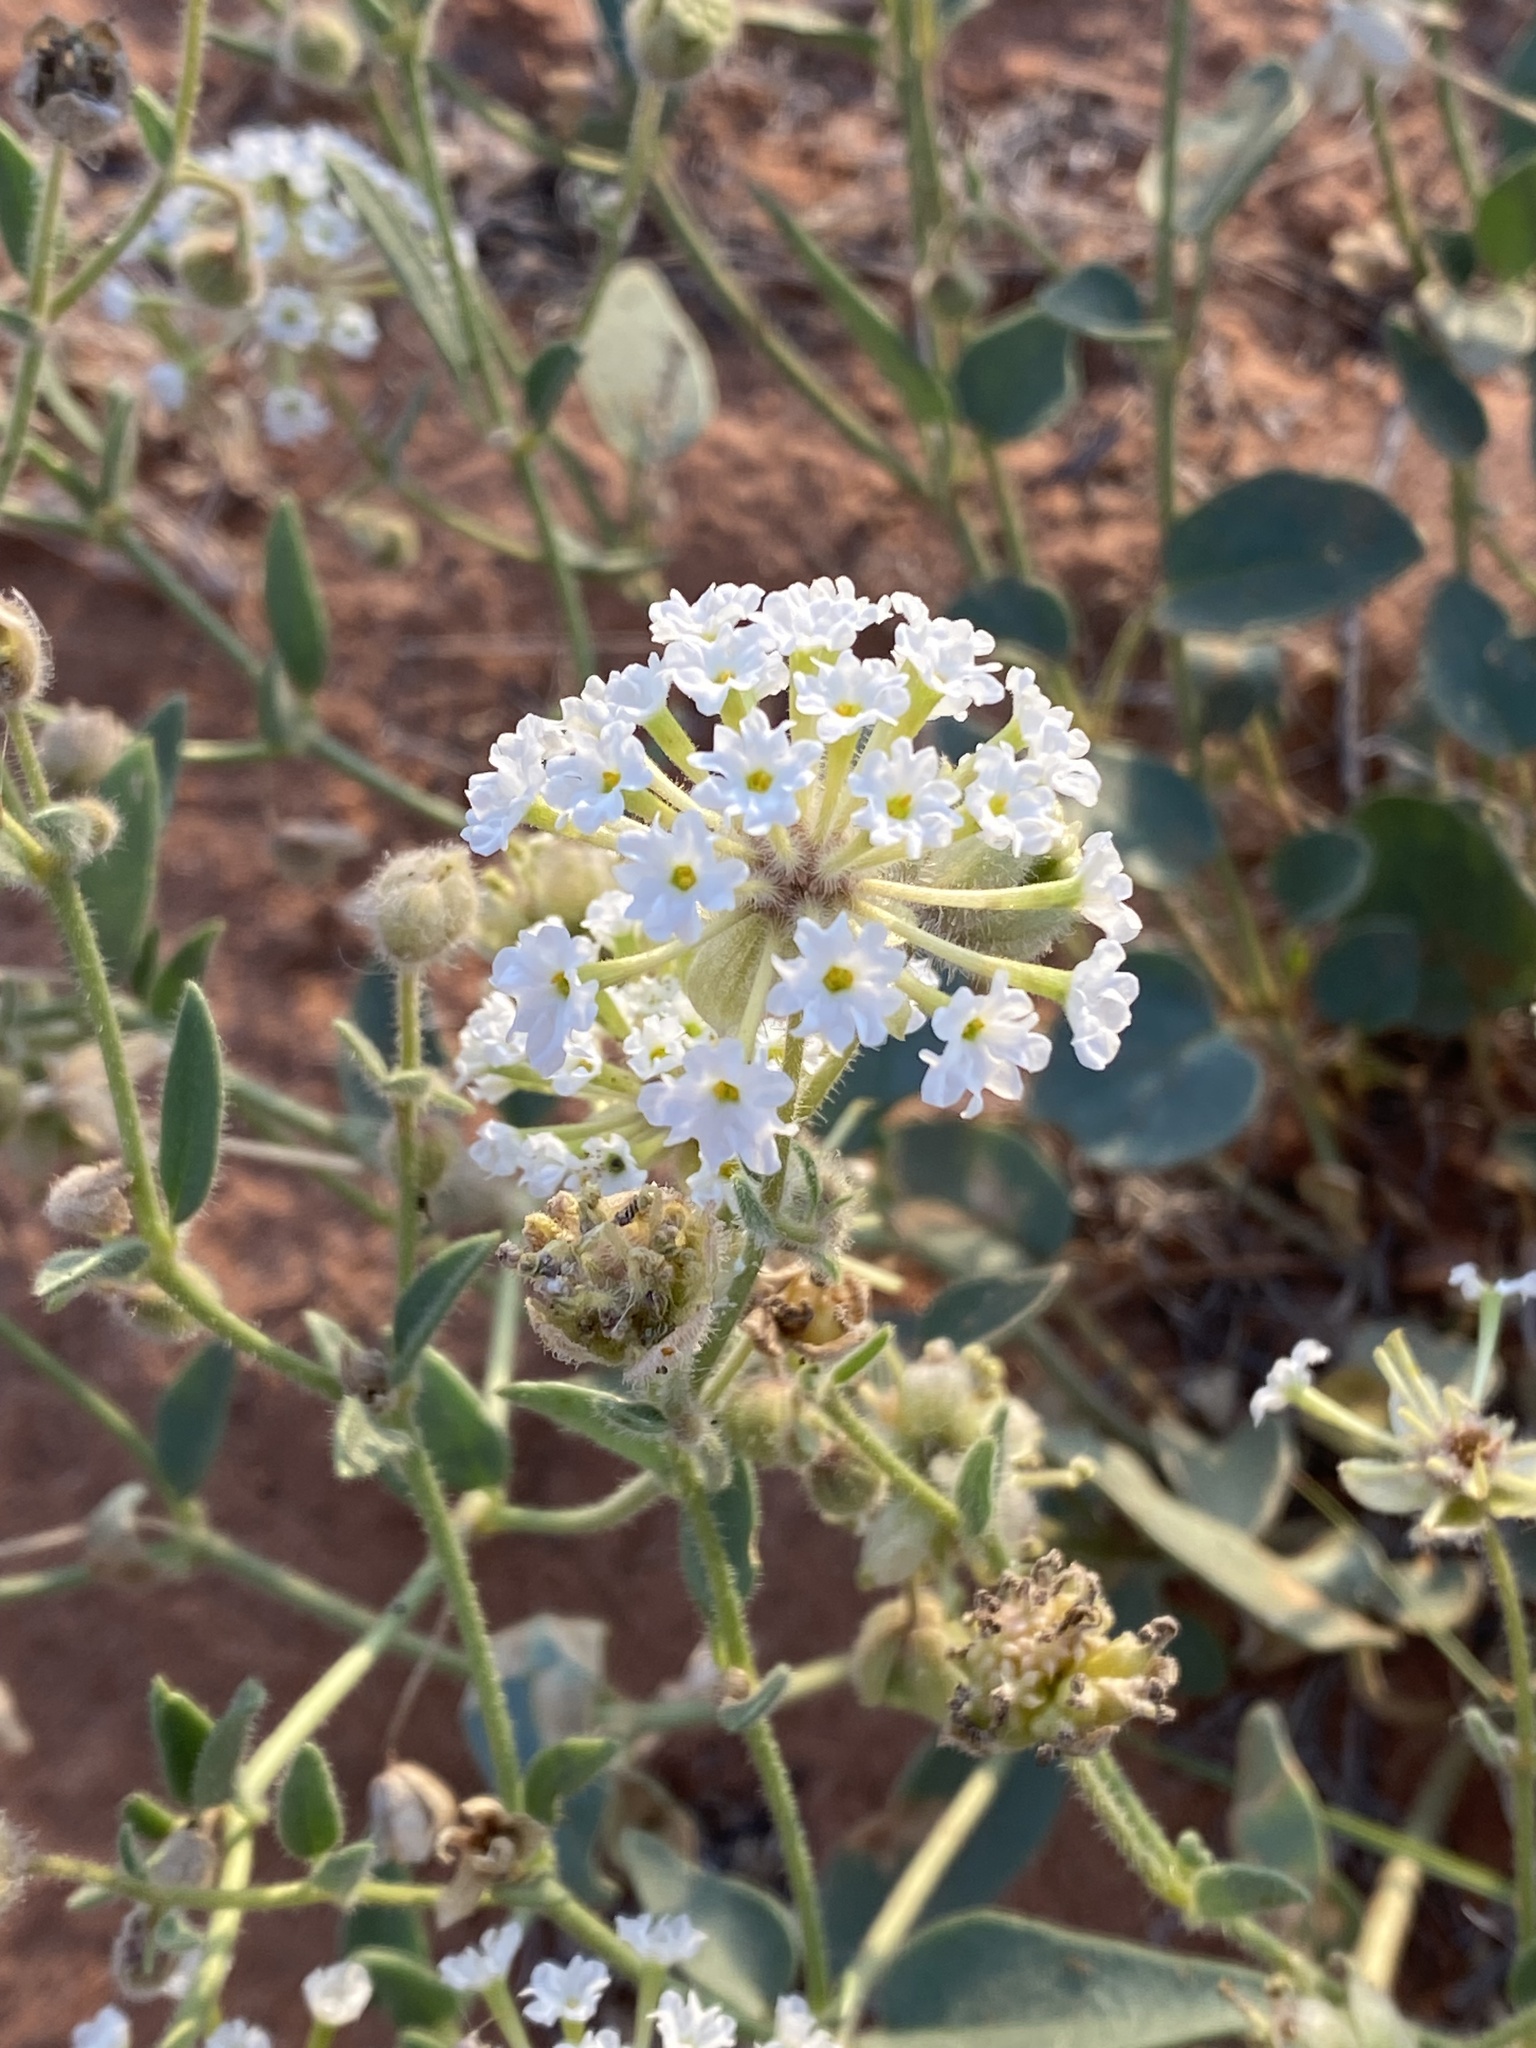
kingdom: Plantae
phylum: Tracheophyta
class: Magnoliopsida
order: Caryophyllales
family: Nyctaginaceae
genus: Abronia
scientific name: Abronia elliptica
